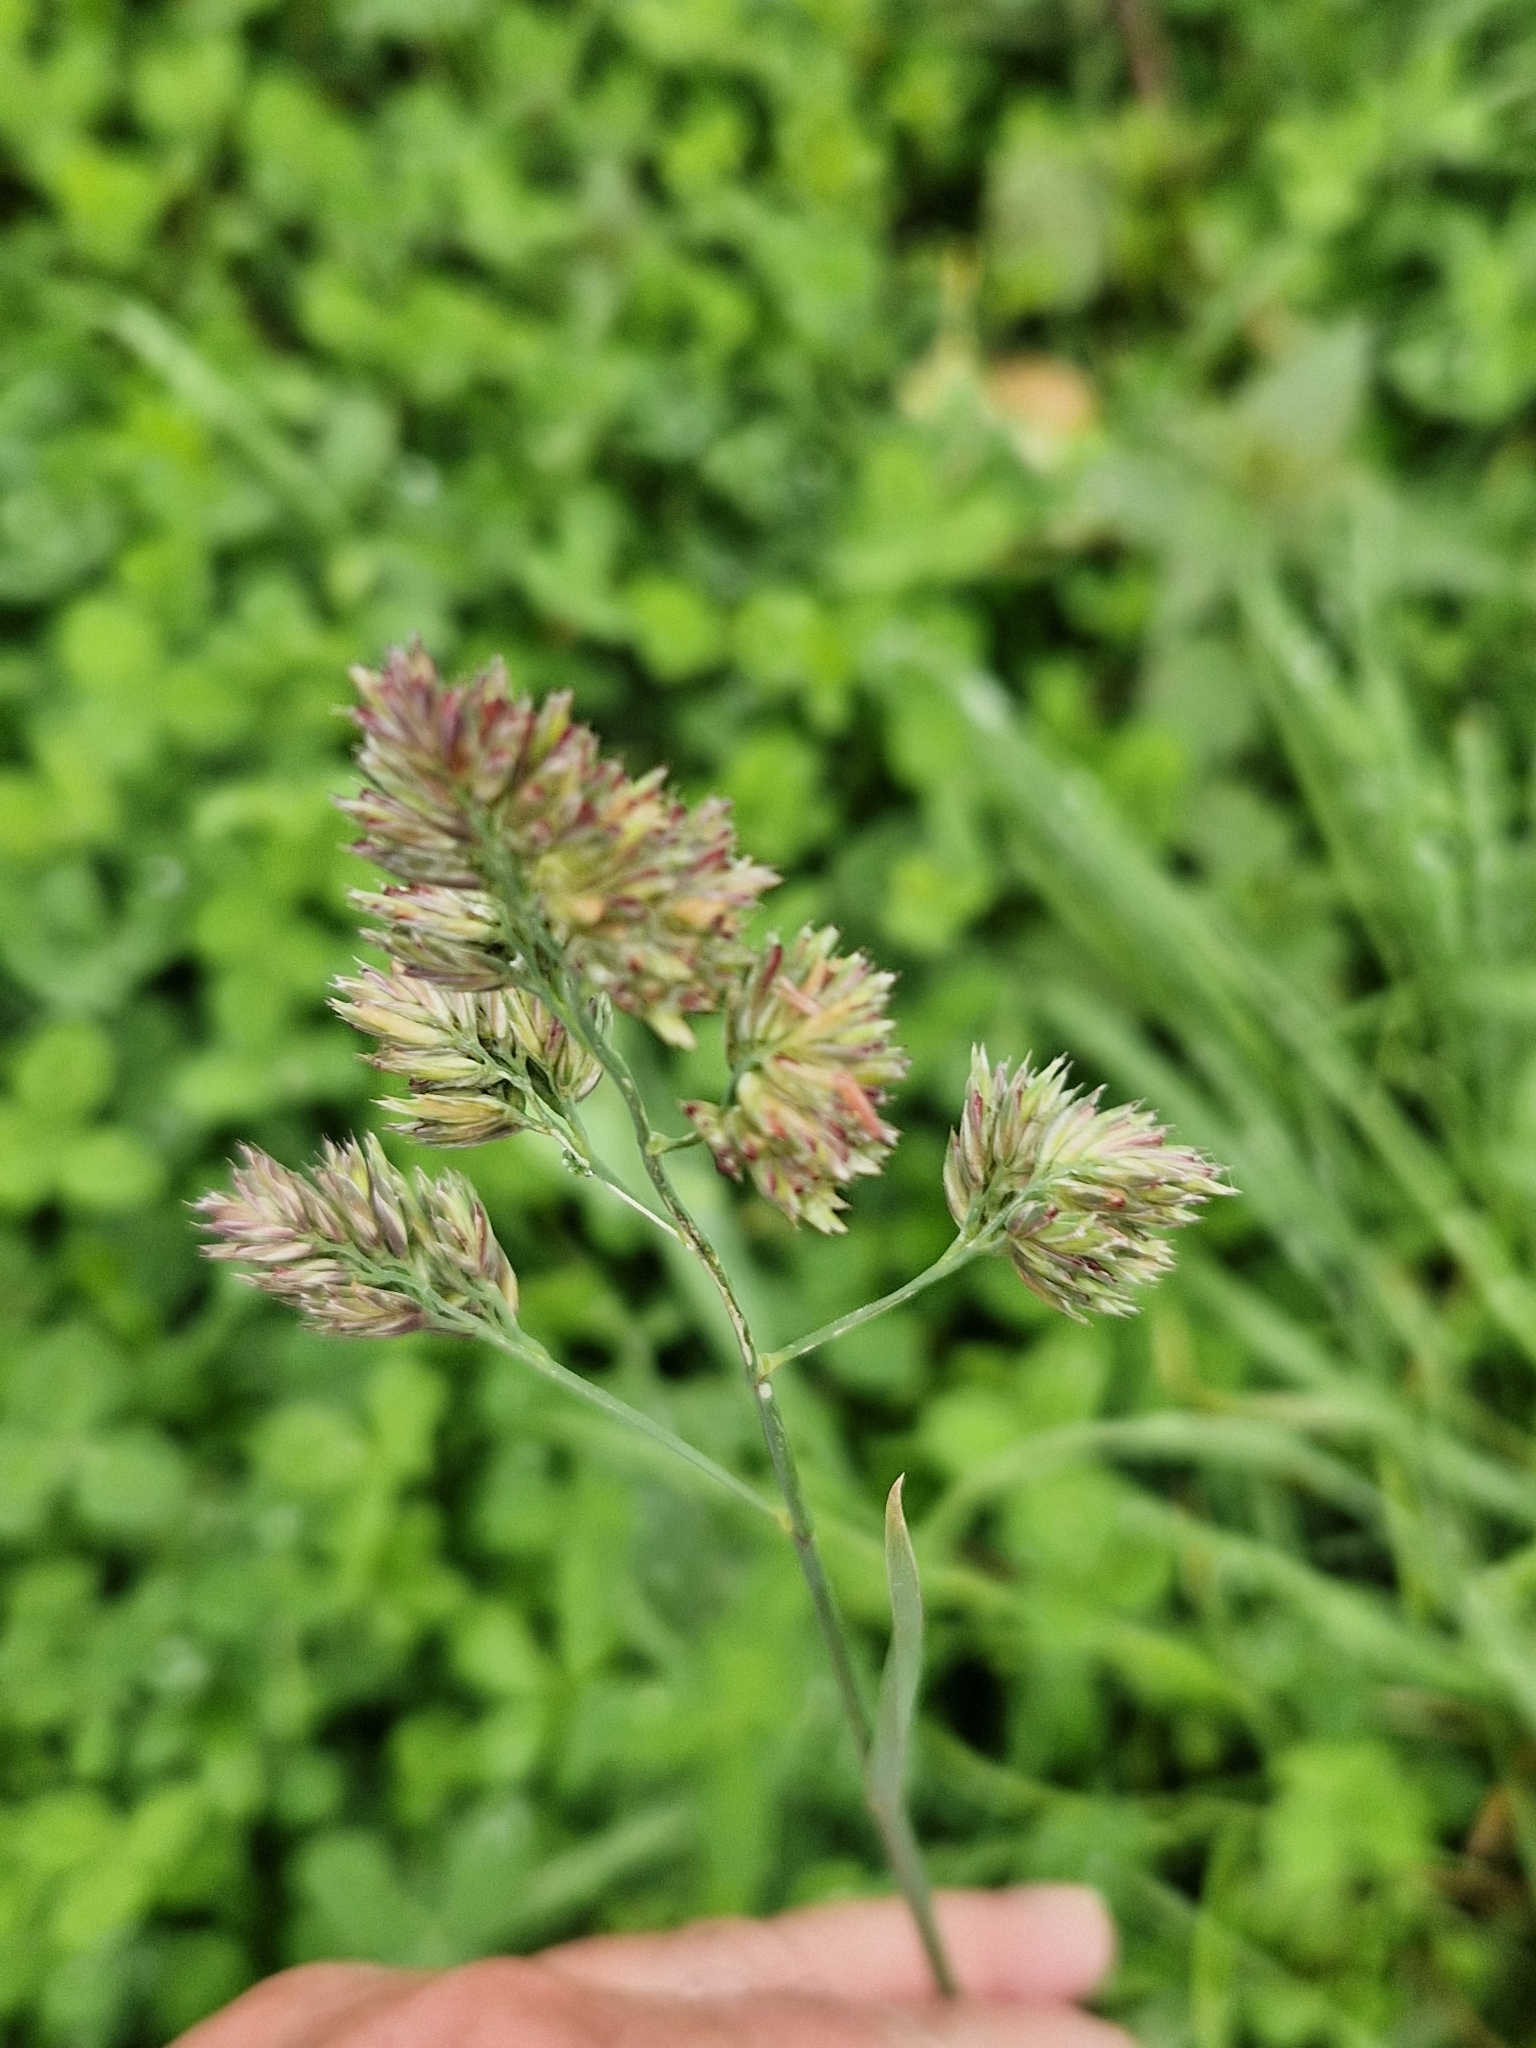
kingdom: Plantae
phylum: Tracheophyta
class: Liliopsida
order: Poales
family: Poaceae
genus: Dactylis
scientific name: Dactylis glomerata
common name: Orchardgrass
